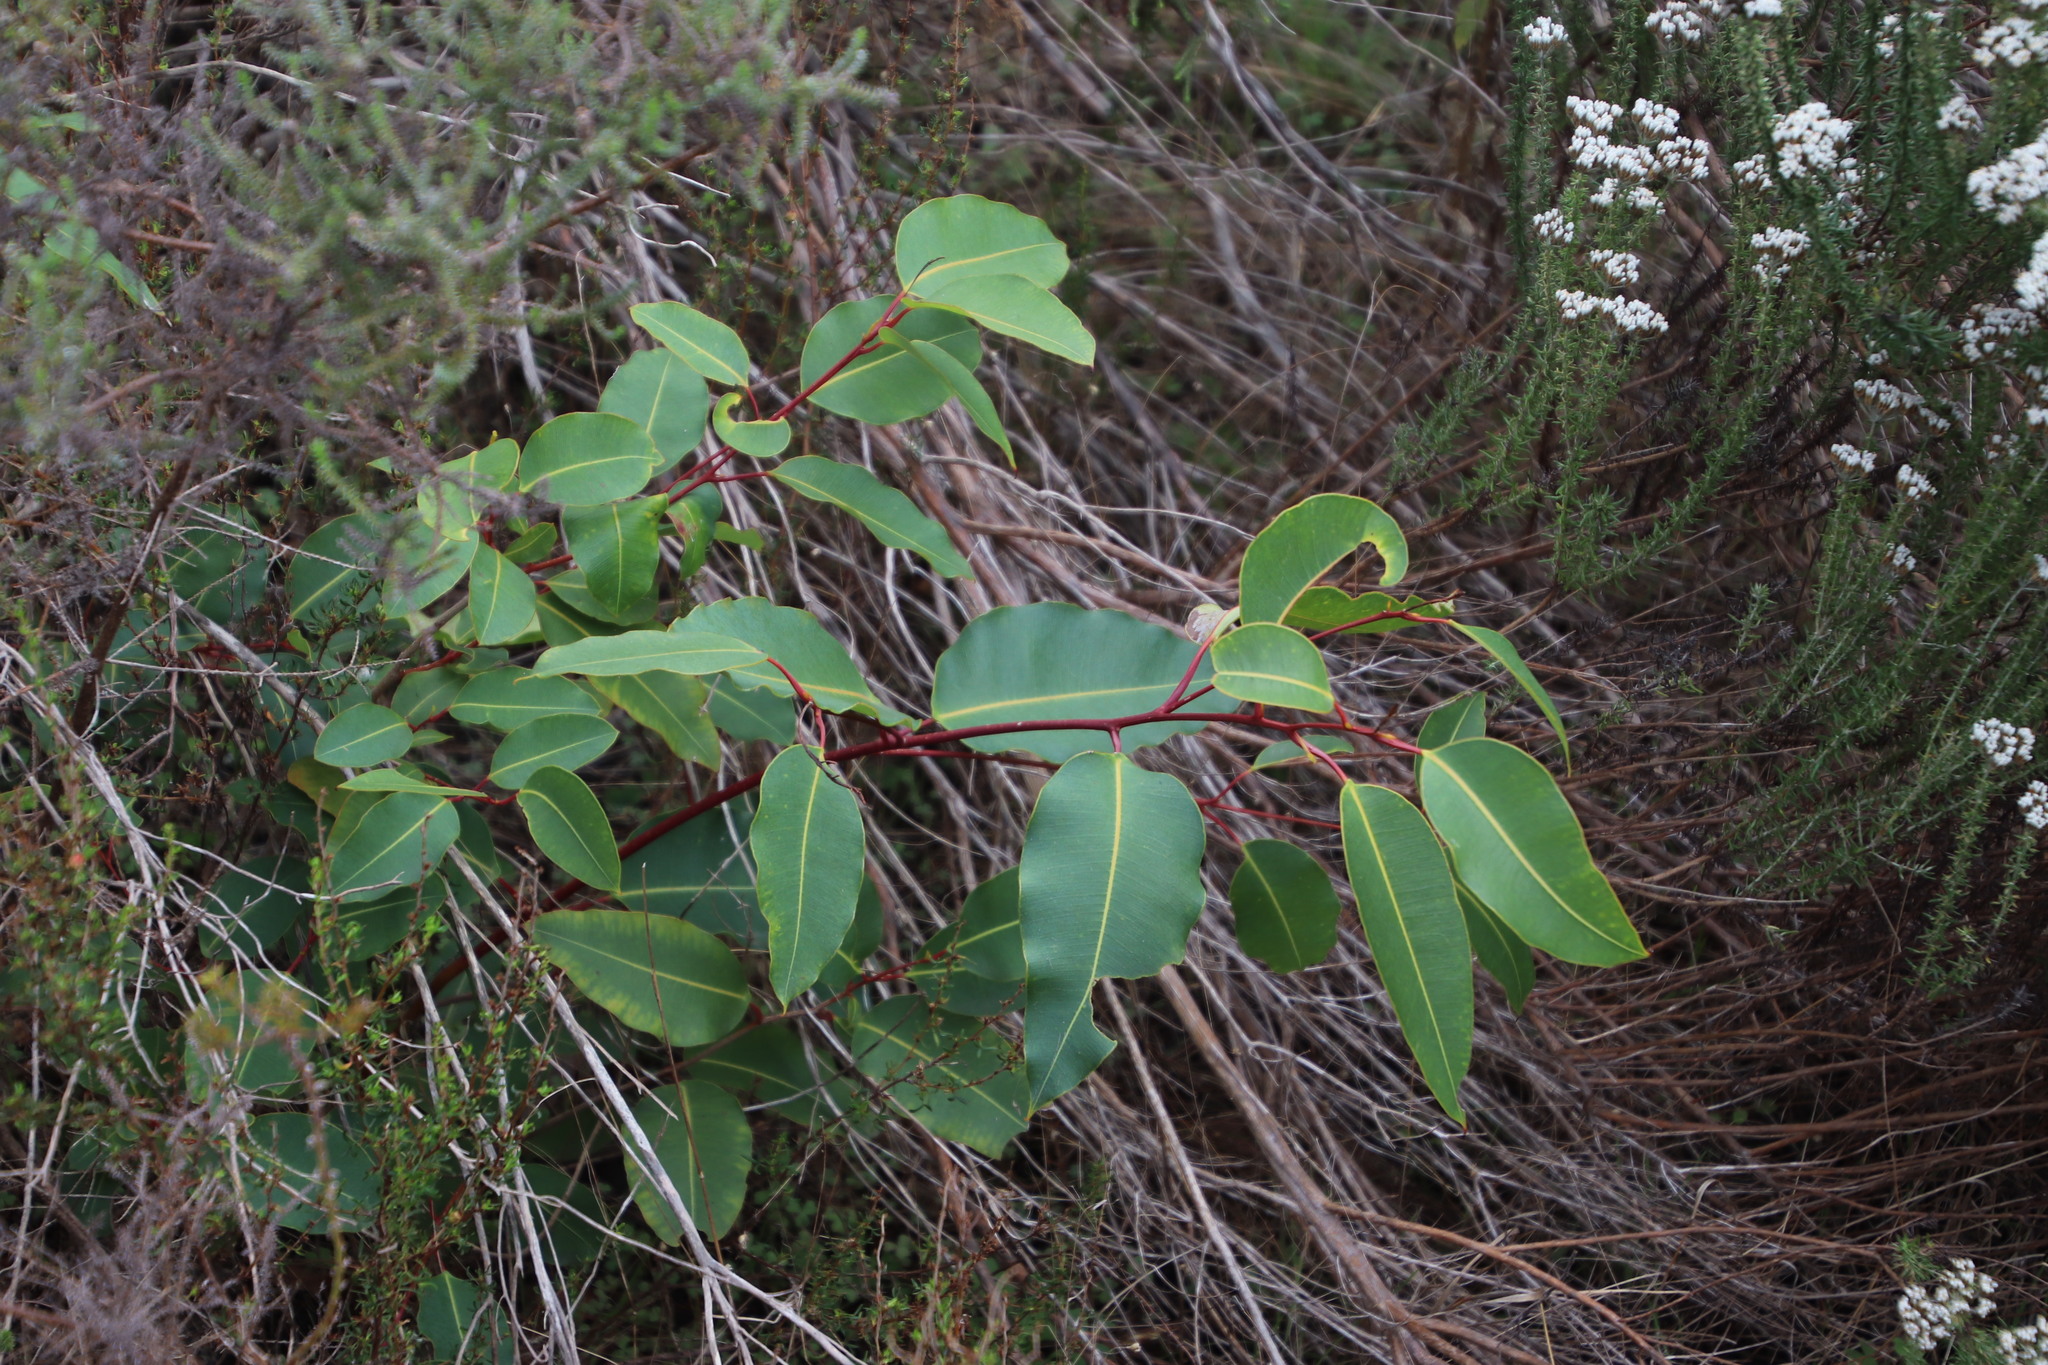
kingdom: Plantae
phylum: Tracheophyta
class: Magnoliopsida
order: Myrtales
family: Myrtaceae
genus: Corymbia
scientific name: Corymbia ficifolia
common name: Redflower gum
